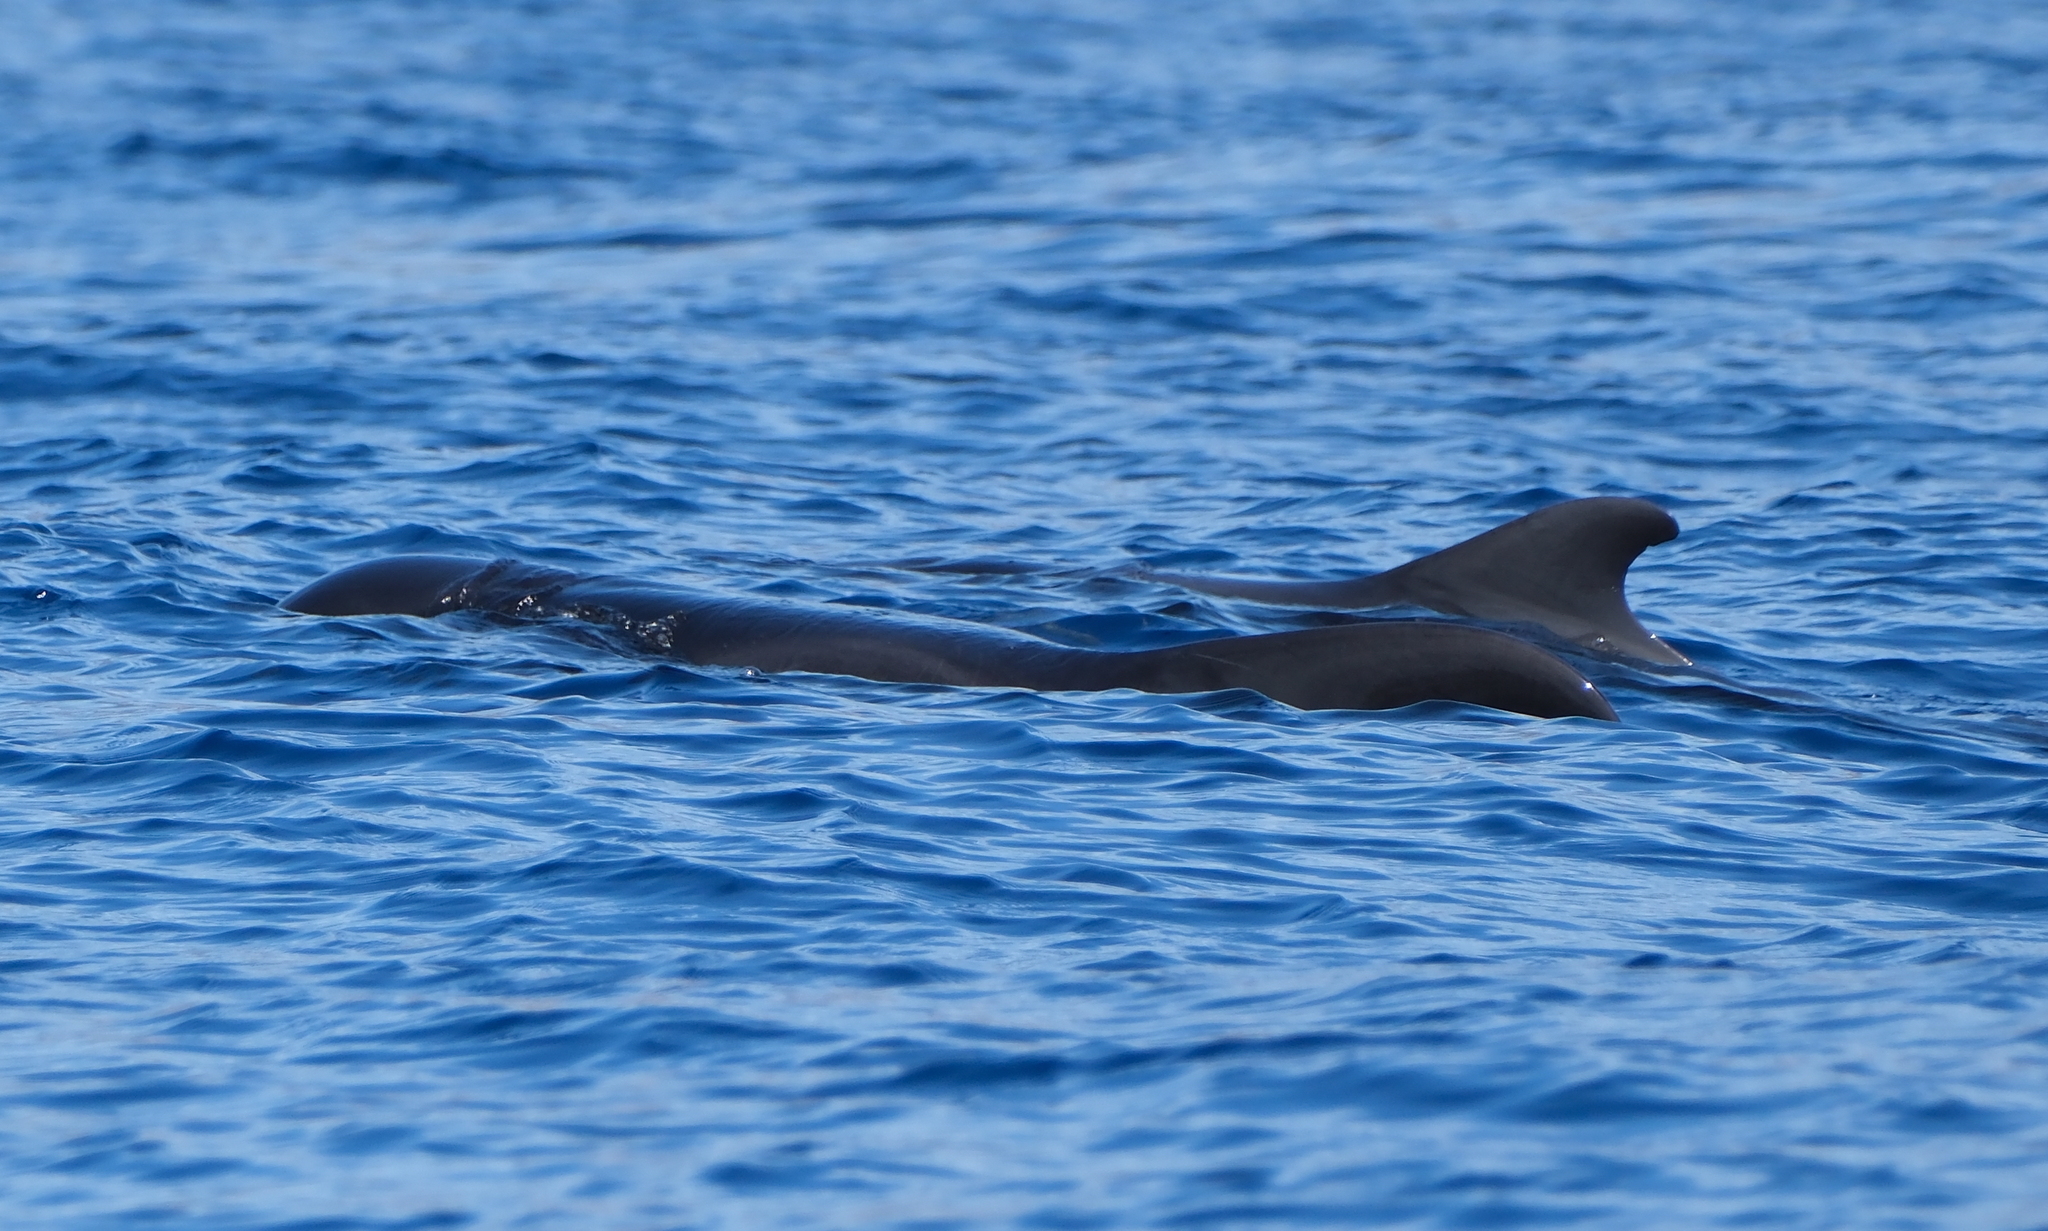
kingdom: Animalia
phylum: Chordata
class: Mammalia
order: Cetacea
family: Delphinidae
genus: Globicephala
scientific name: Globicephala macrorhynchus
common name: Short-finned pilot whale
